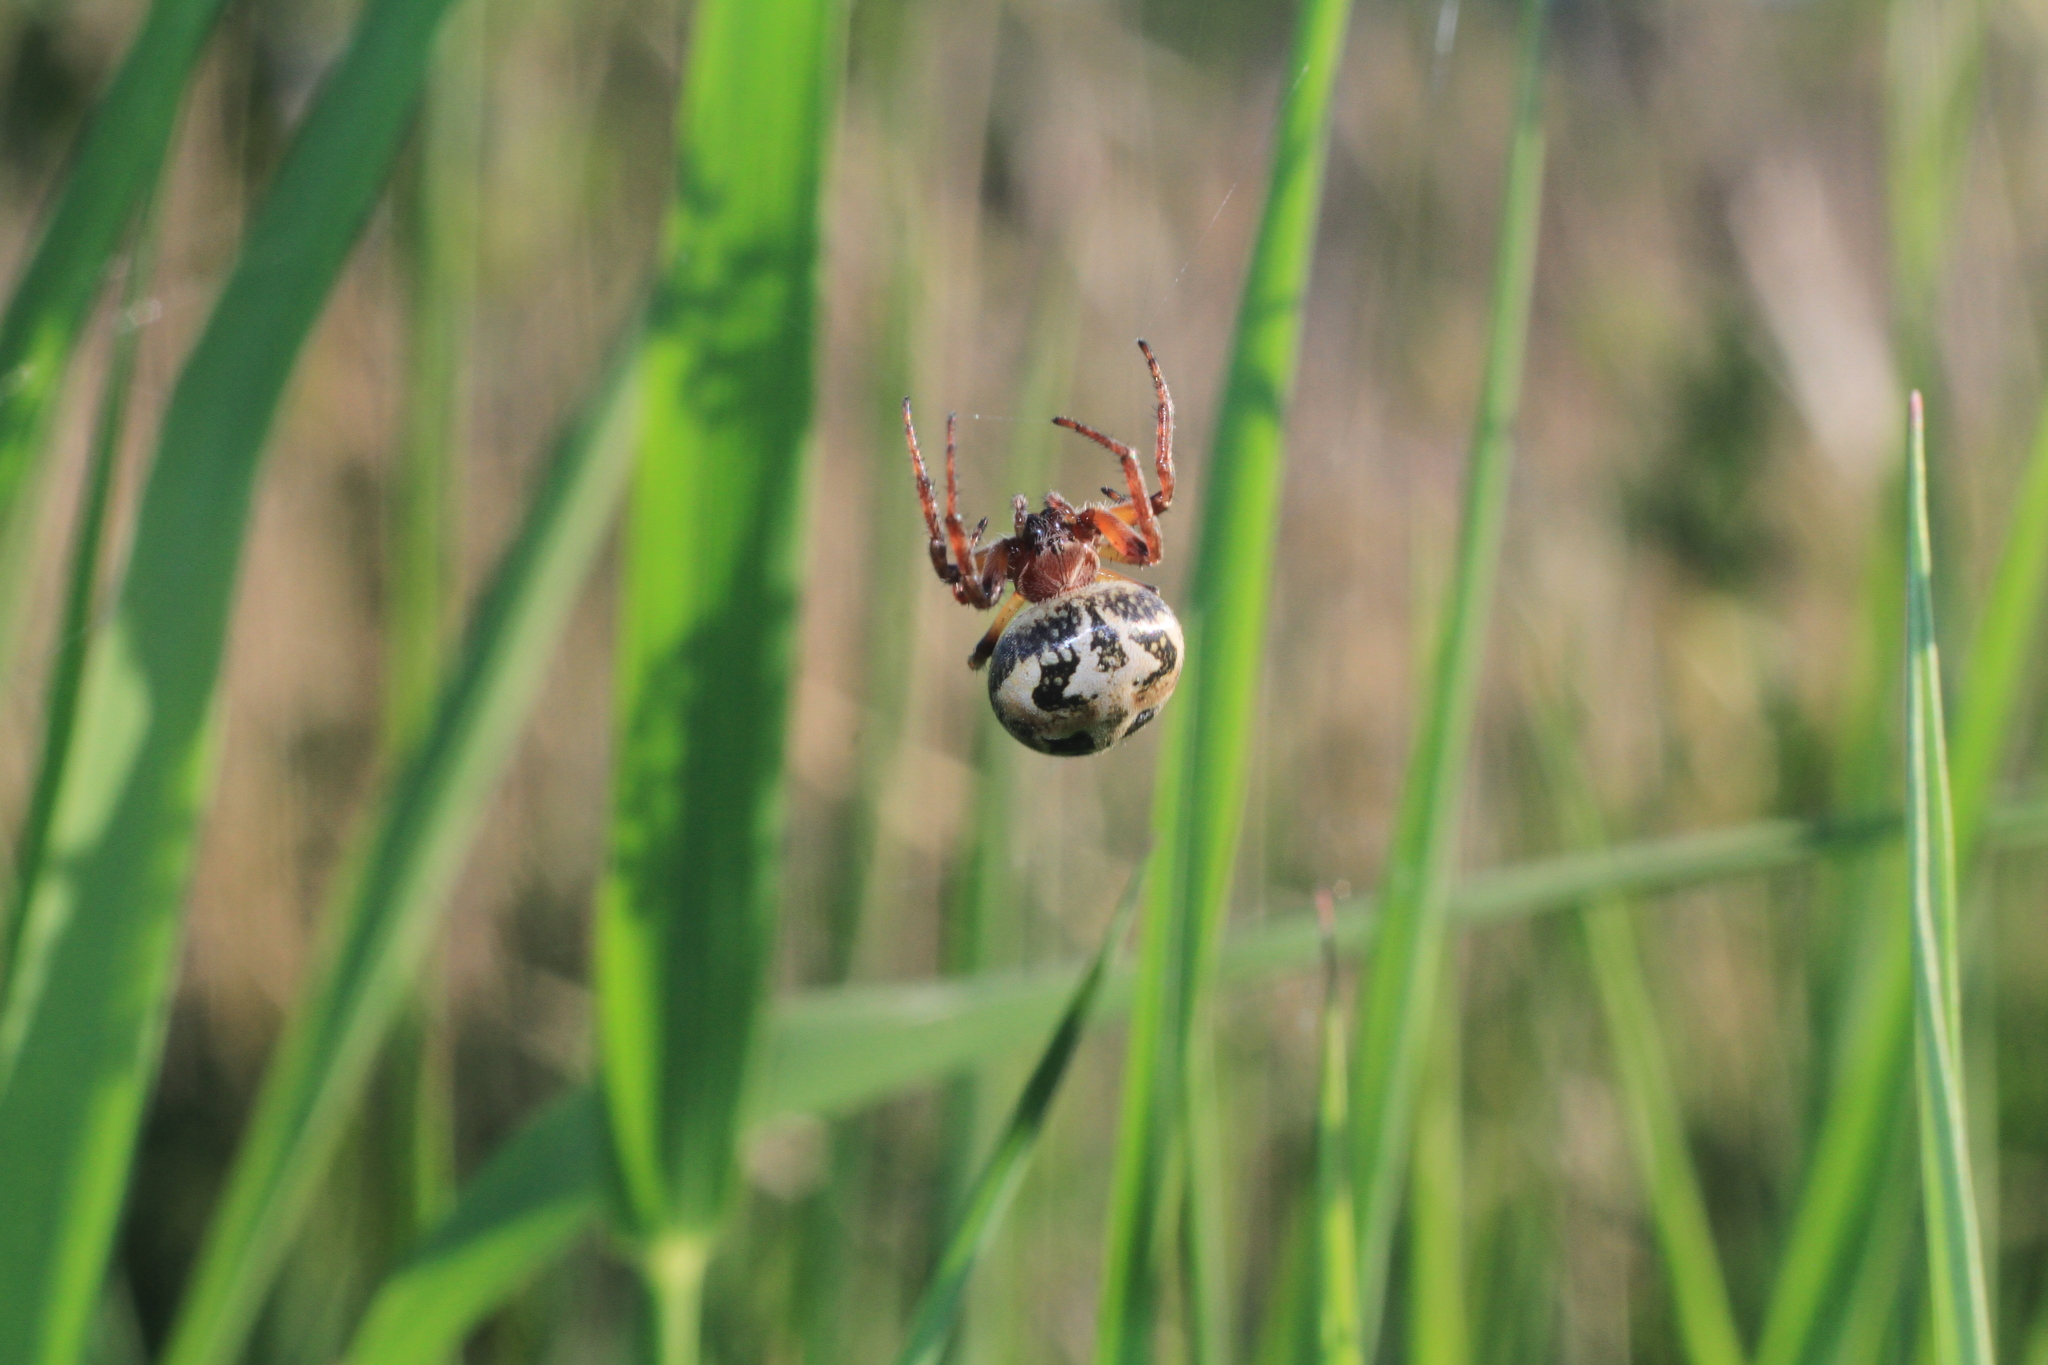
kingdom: Animalia
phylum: Arthropoda
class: Arachnida
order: Araneae
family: Araneidae
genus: Larinioides
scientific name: Larinioides cornutus
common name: Furrow orbweaver
